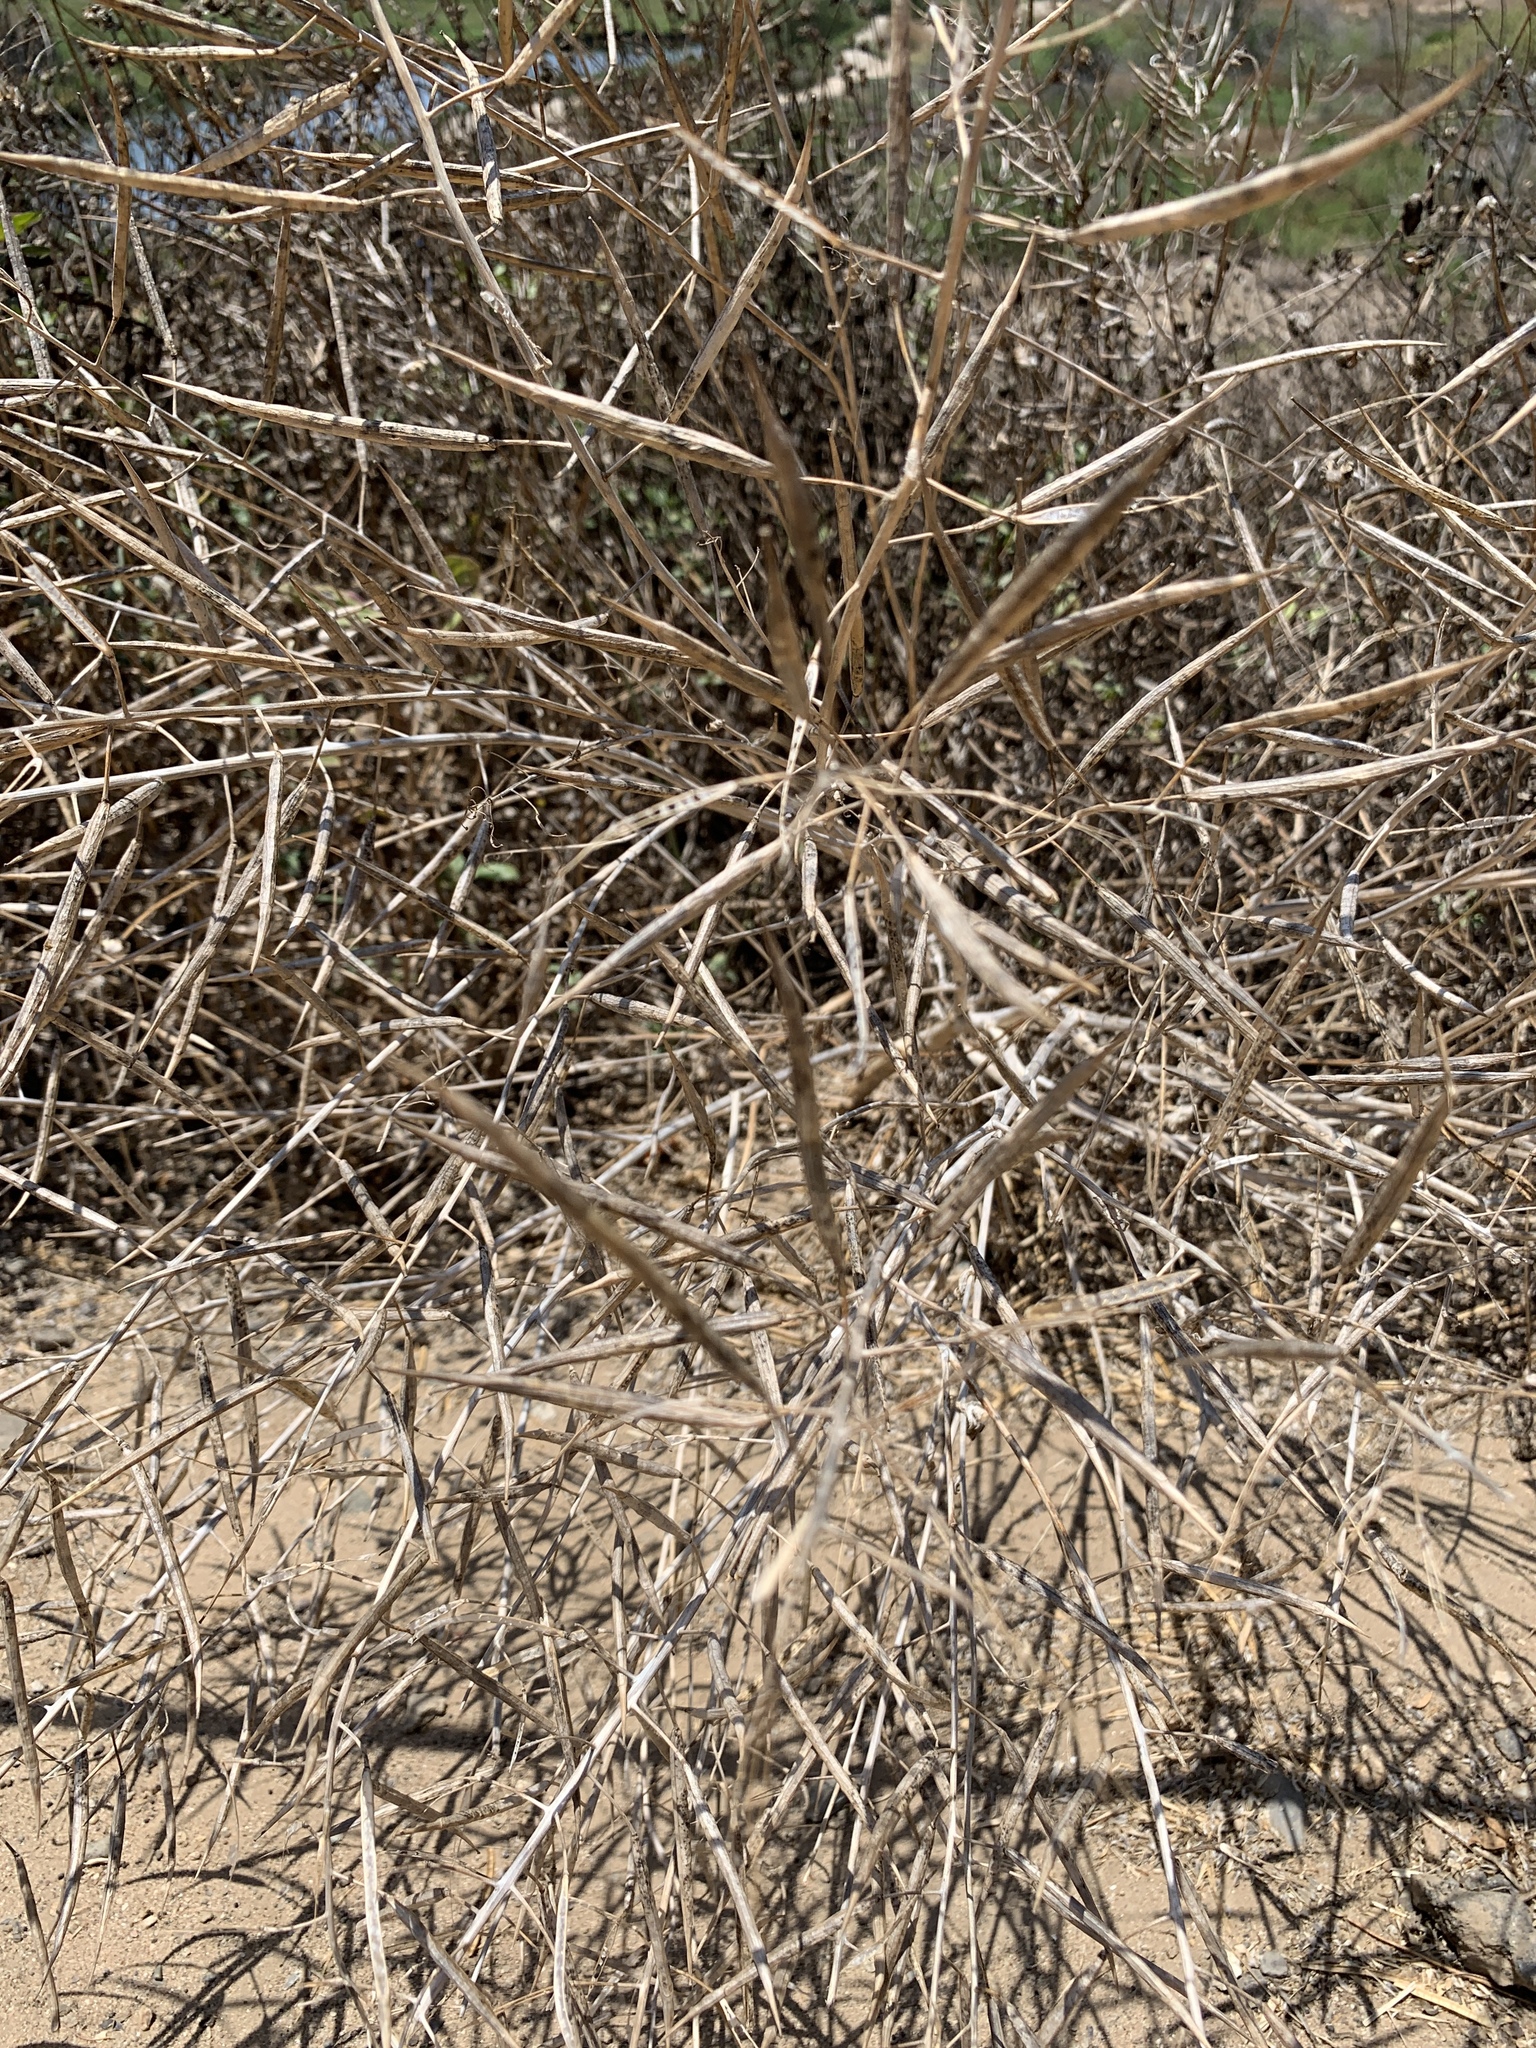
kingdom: Plantae
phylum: Tracheophyta
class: Magnoliopsida
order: Brassicales
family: Brassicaceae
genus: Brassica
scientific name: Brassica rapa
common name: Field mustard
